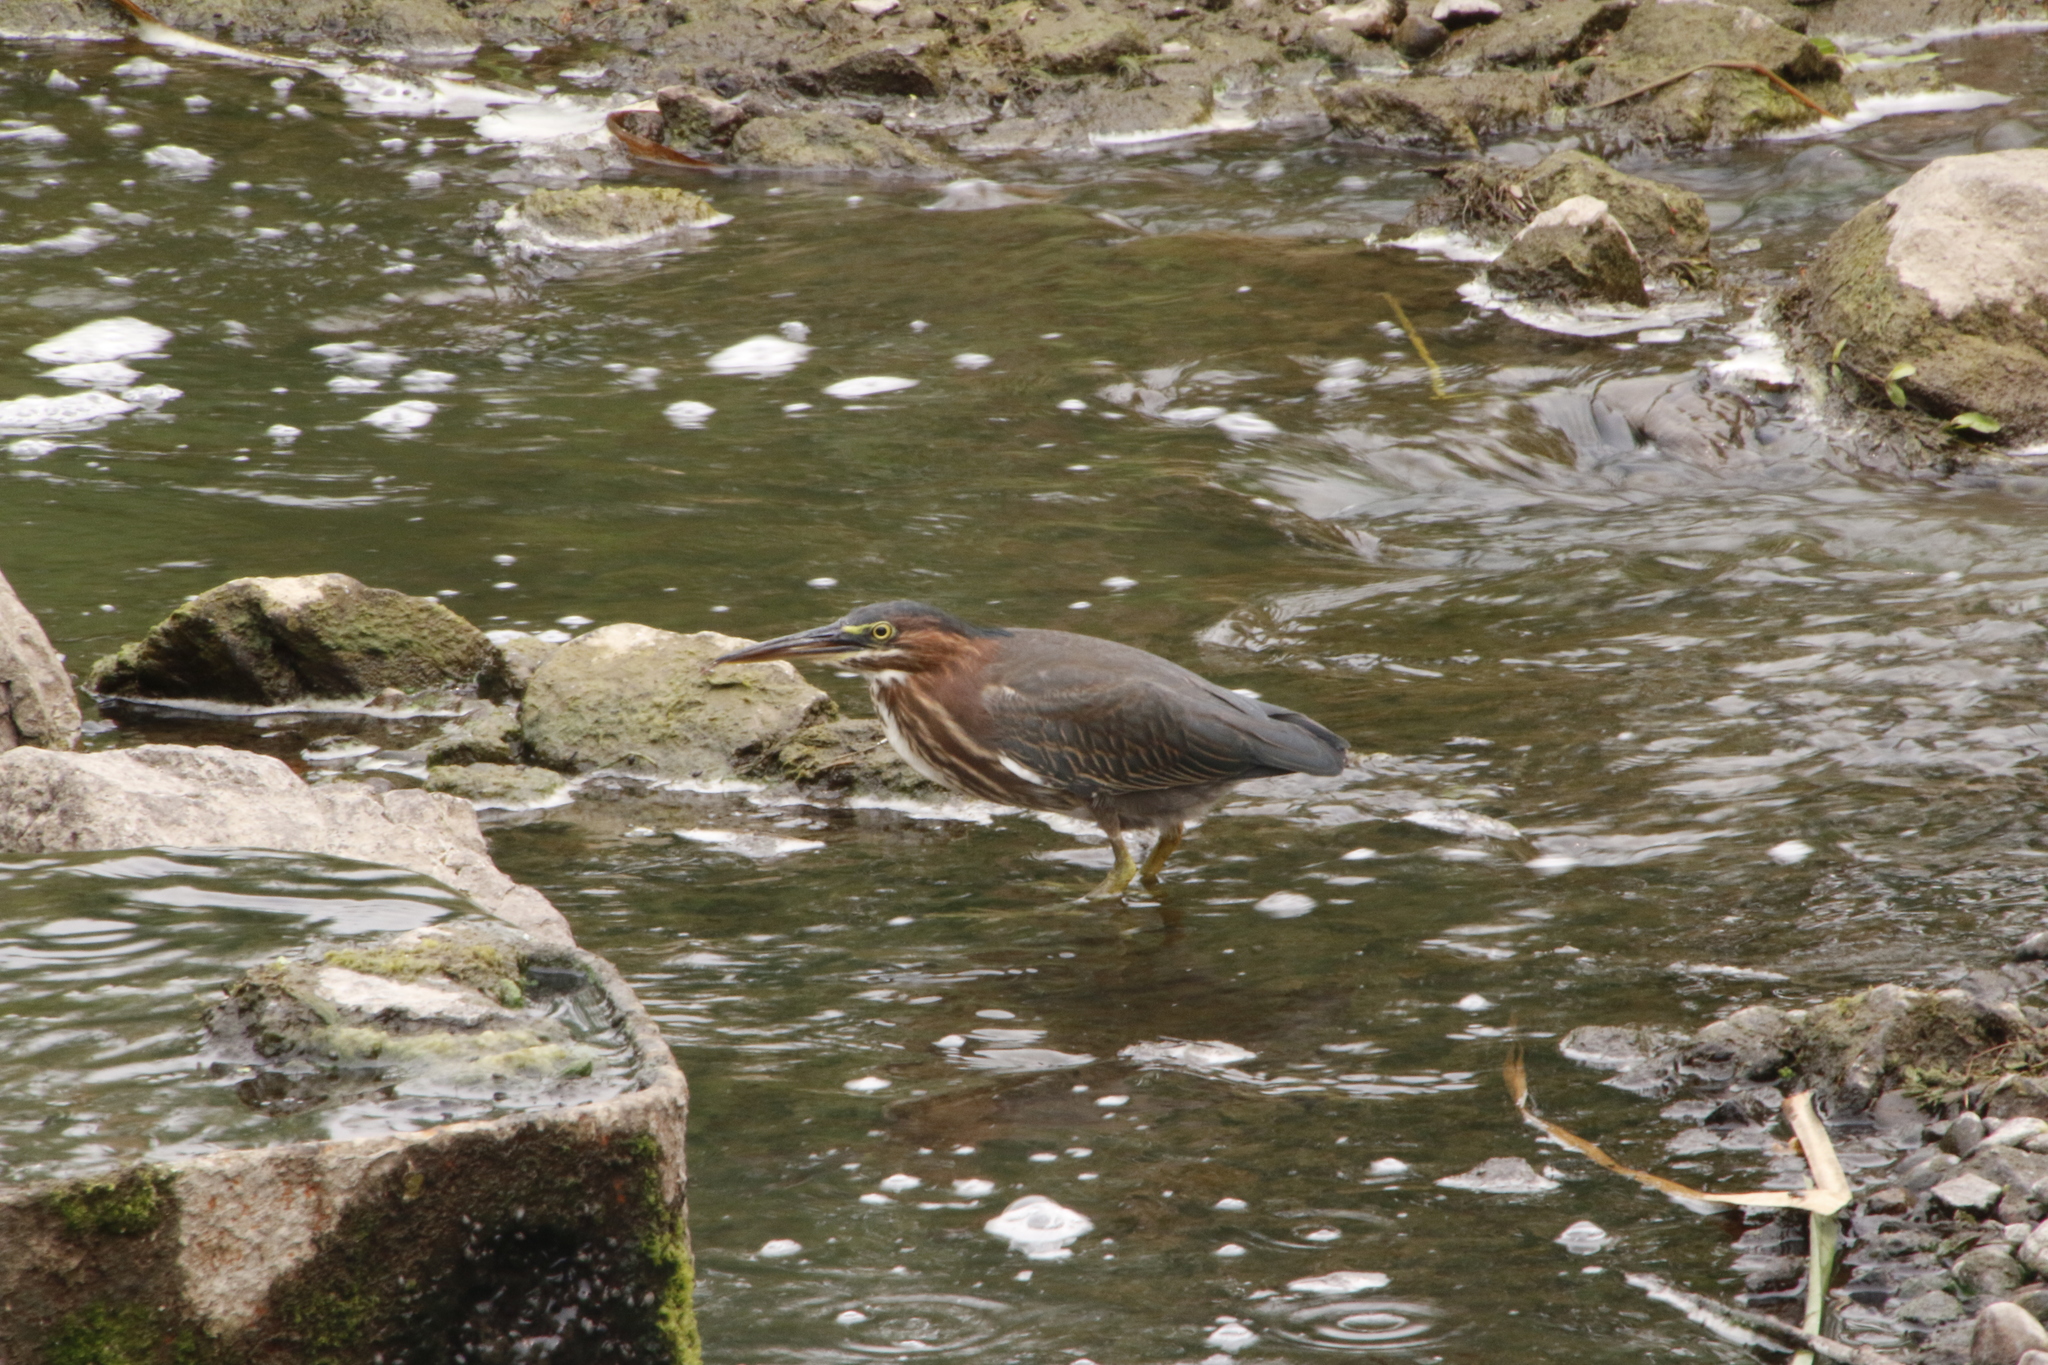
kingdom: Animalia
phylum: Chordata
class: Aves
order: Pelecaniformes
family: Ardeidae
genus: Butorides
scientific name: Butorides virescens
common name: Green heron
